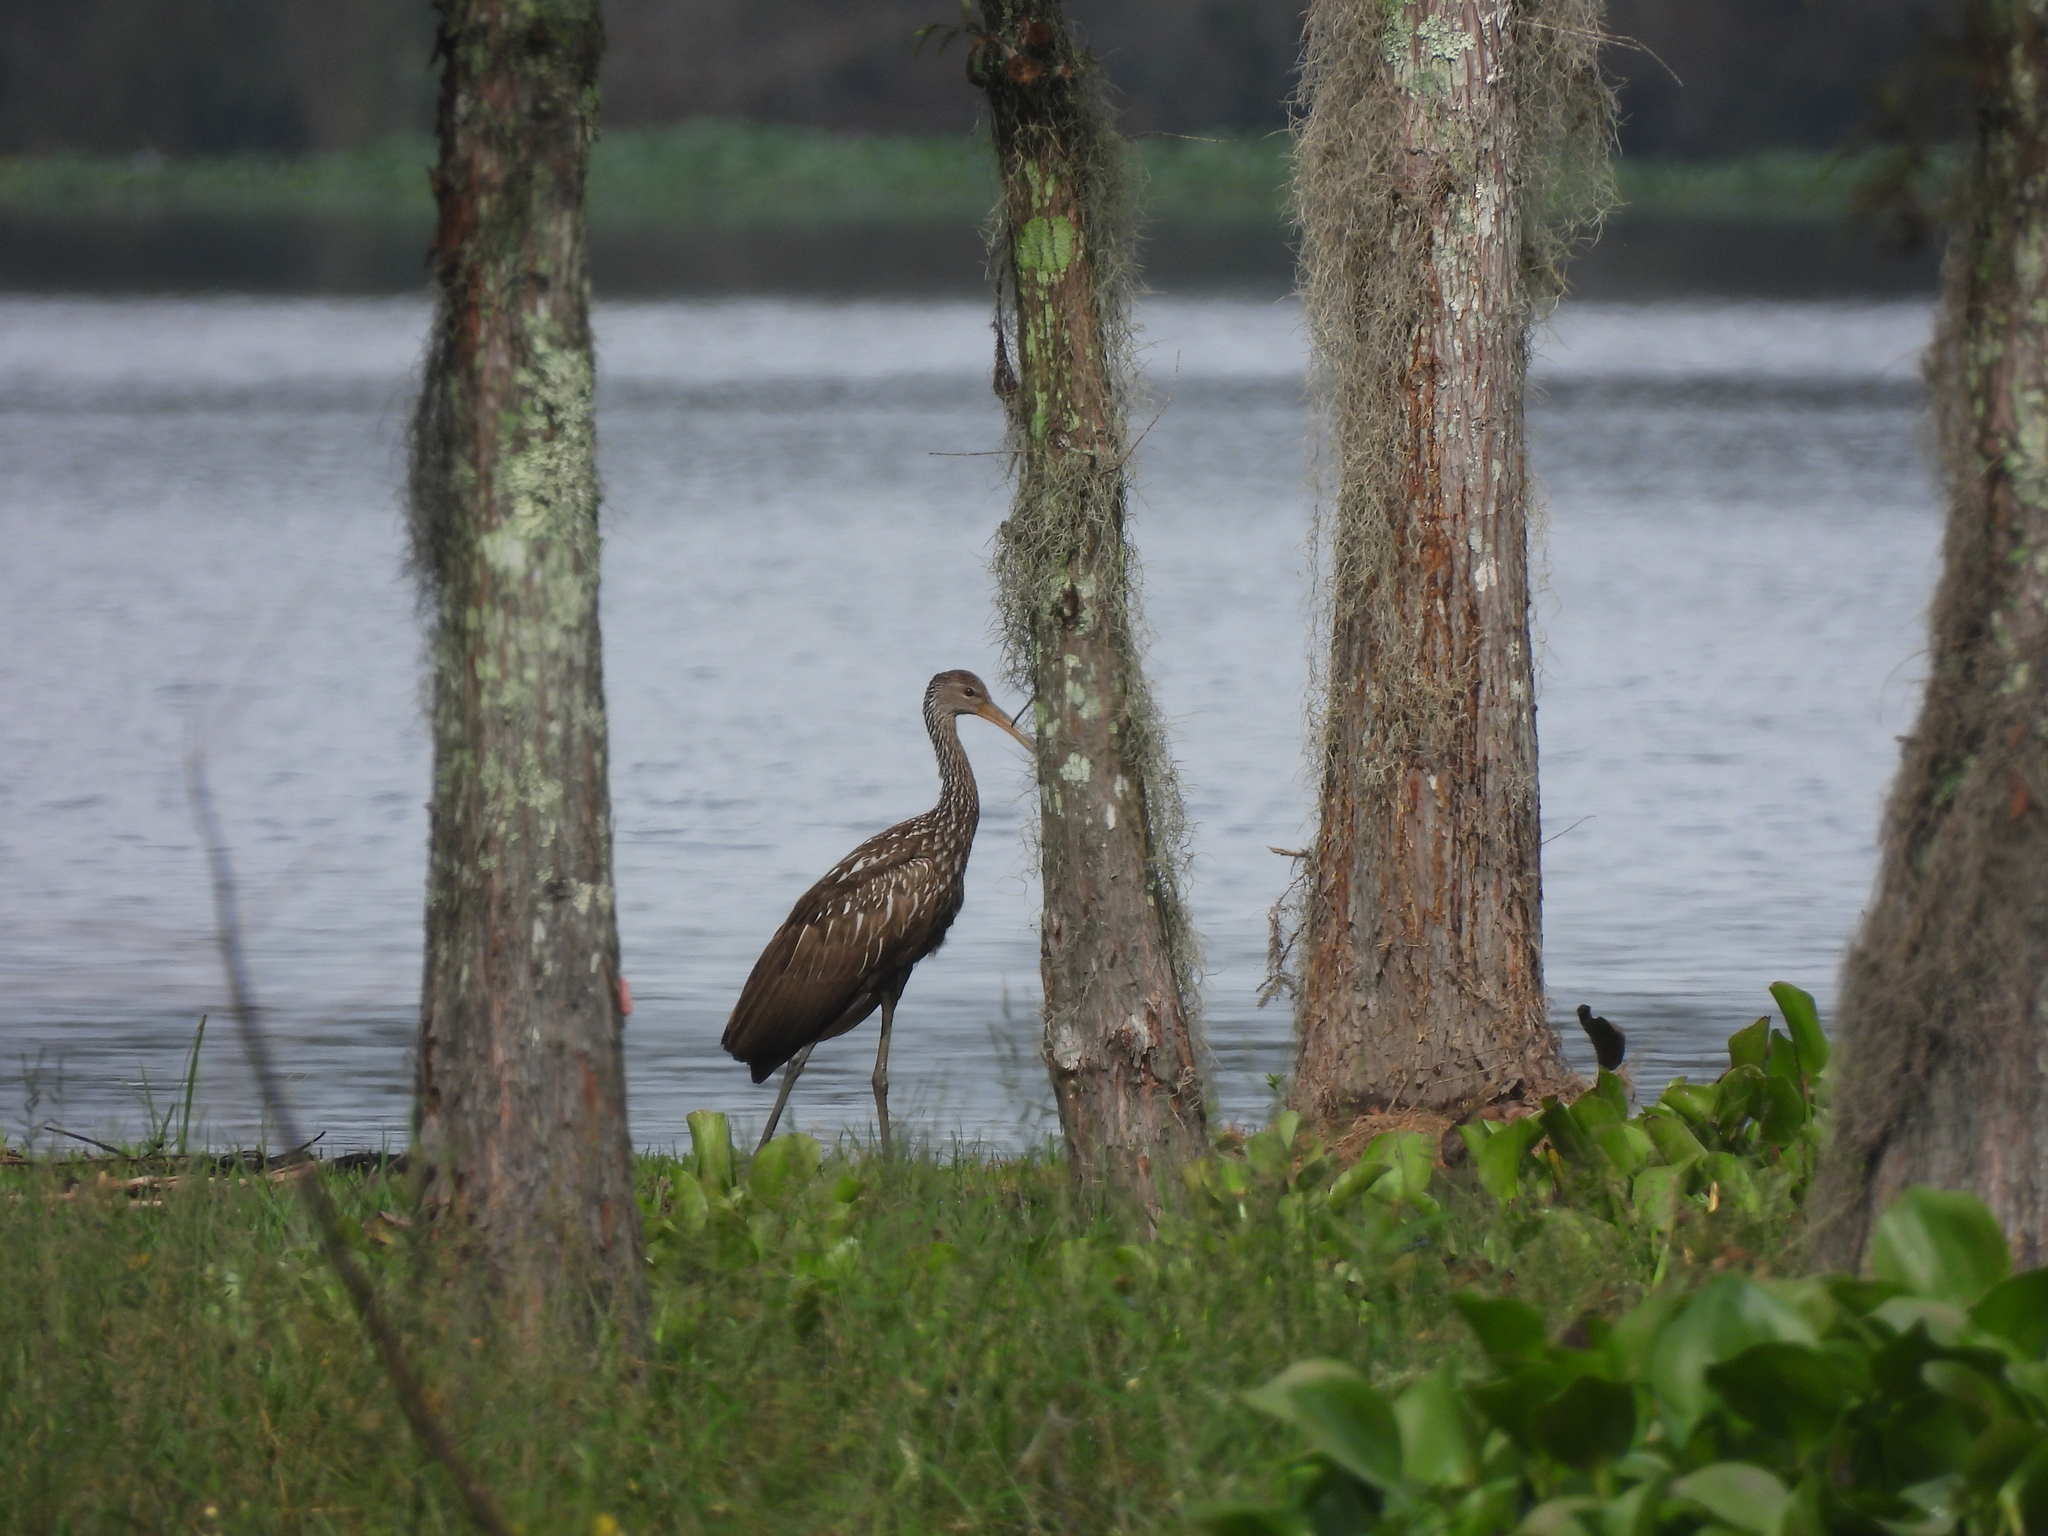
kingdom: Animalia
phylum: Chordata
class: Aves
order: Gruiformes
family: Aramidae
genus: Aramus
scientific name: Aramus guarauna
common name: Limpkin
